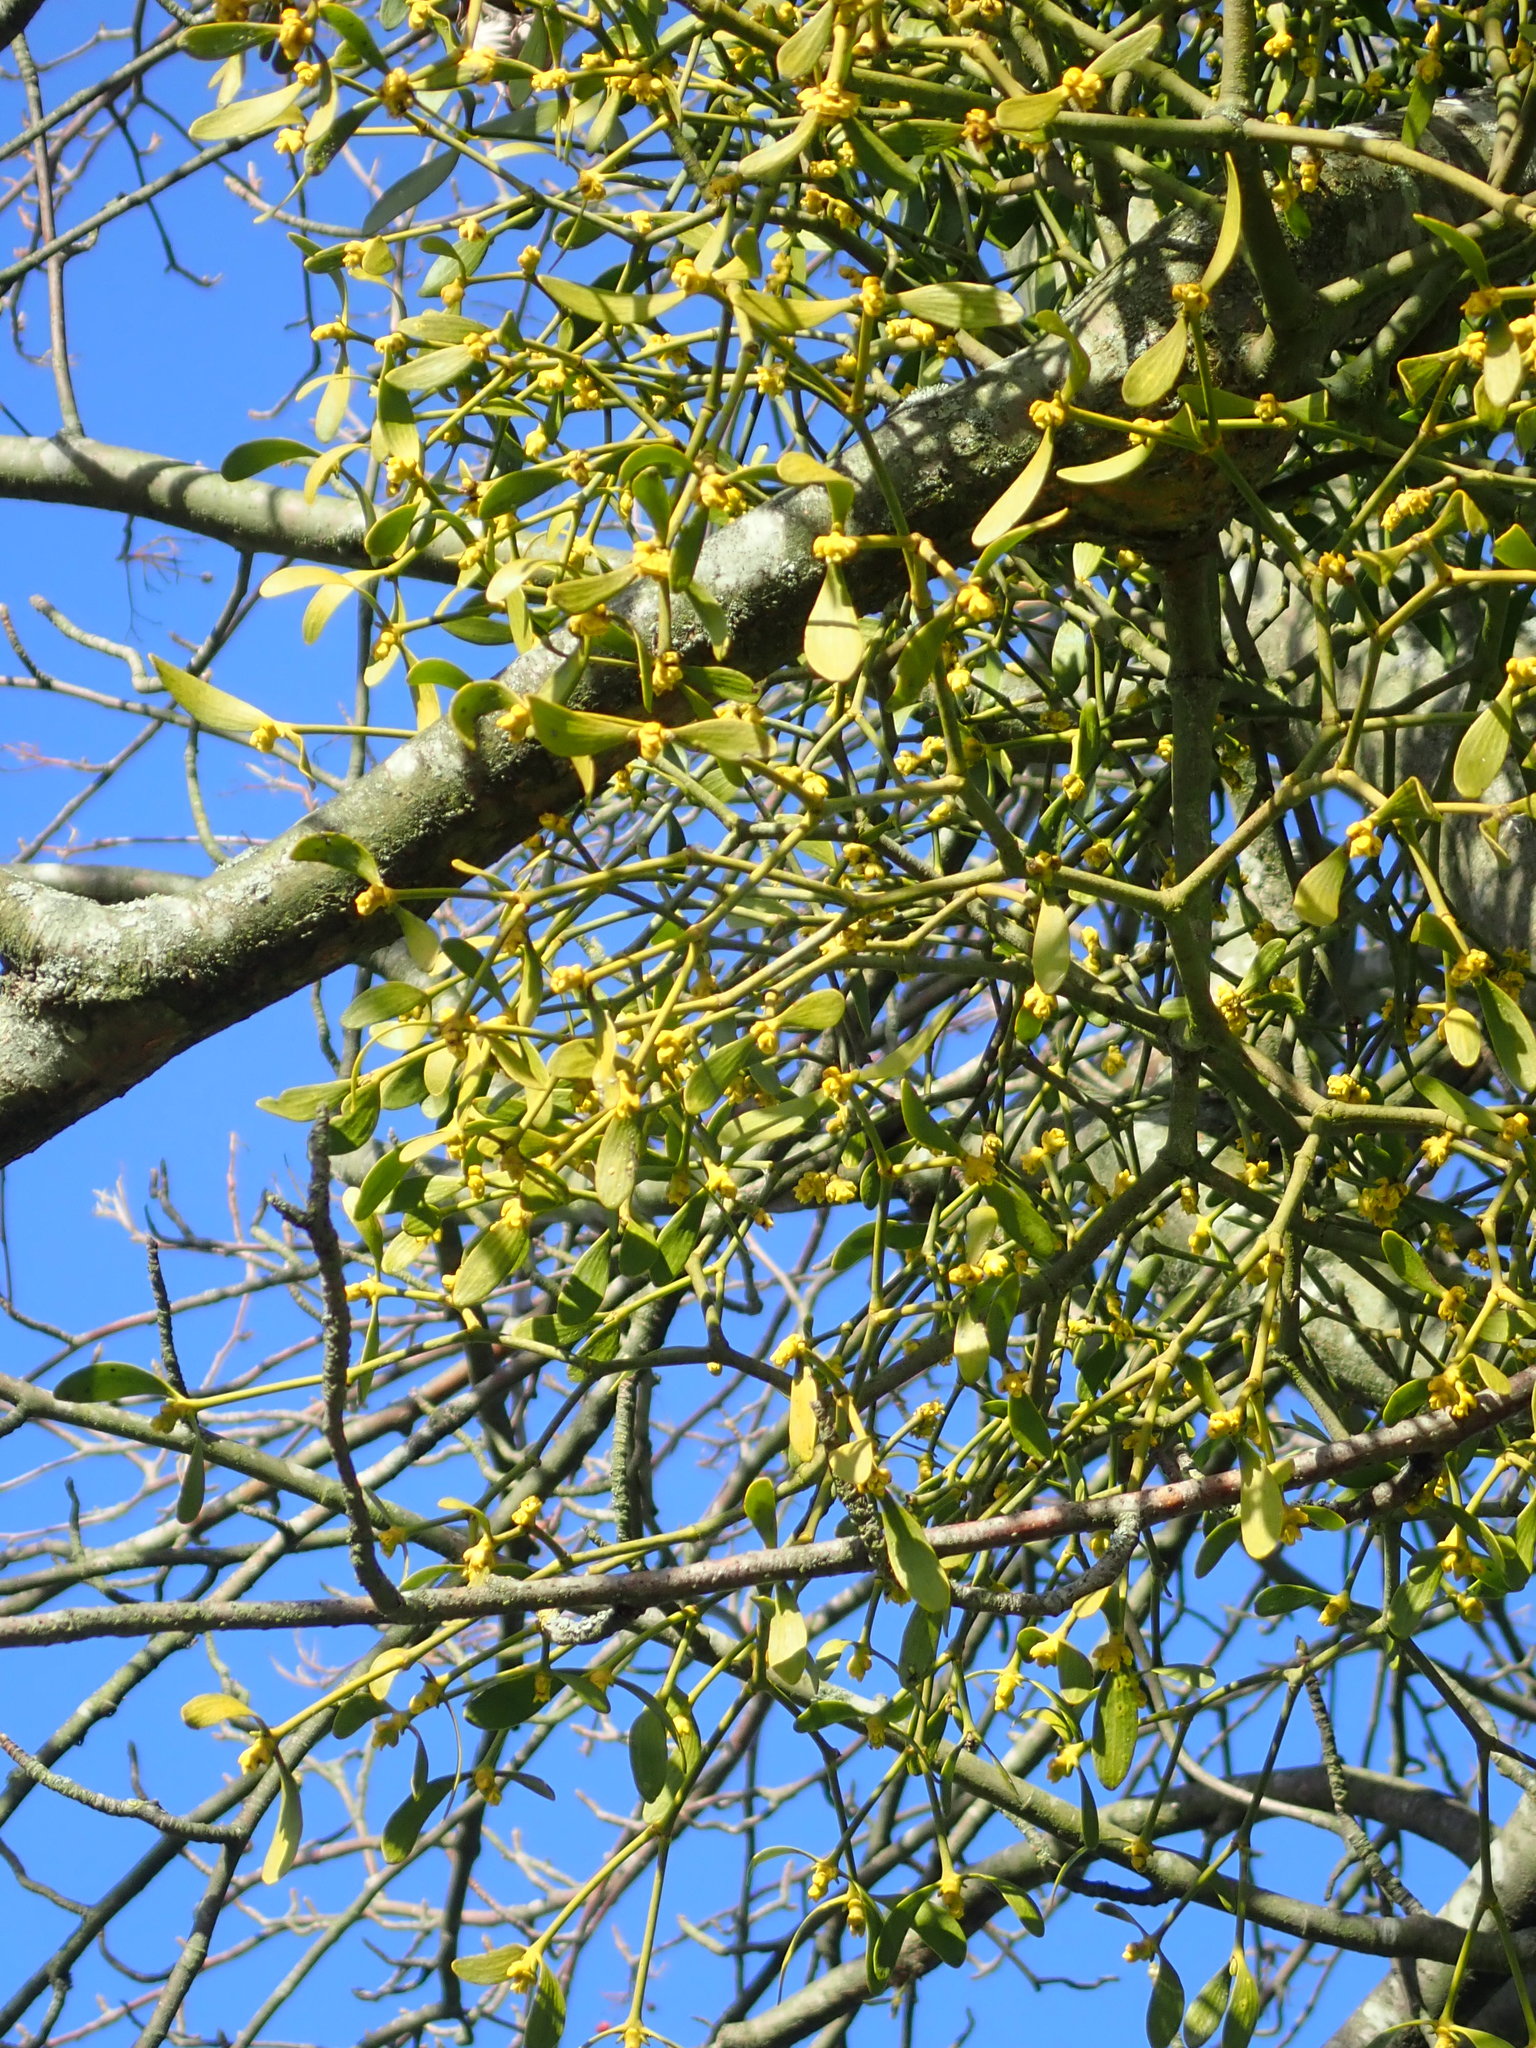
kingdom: Plantae
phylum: Tracheophyta
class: Magnoliopsida
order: Santalales
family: Viscaceae
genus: Viscum
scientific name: Viscum album
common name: Mistletoe
